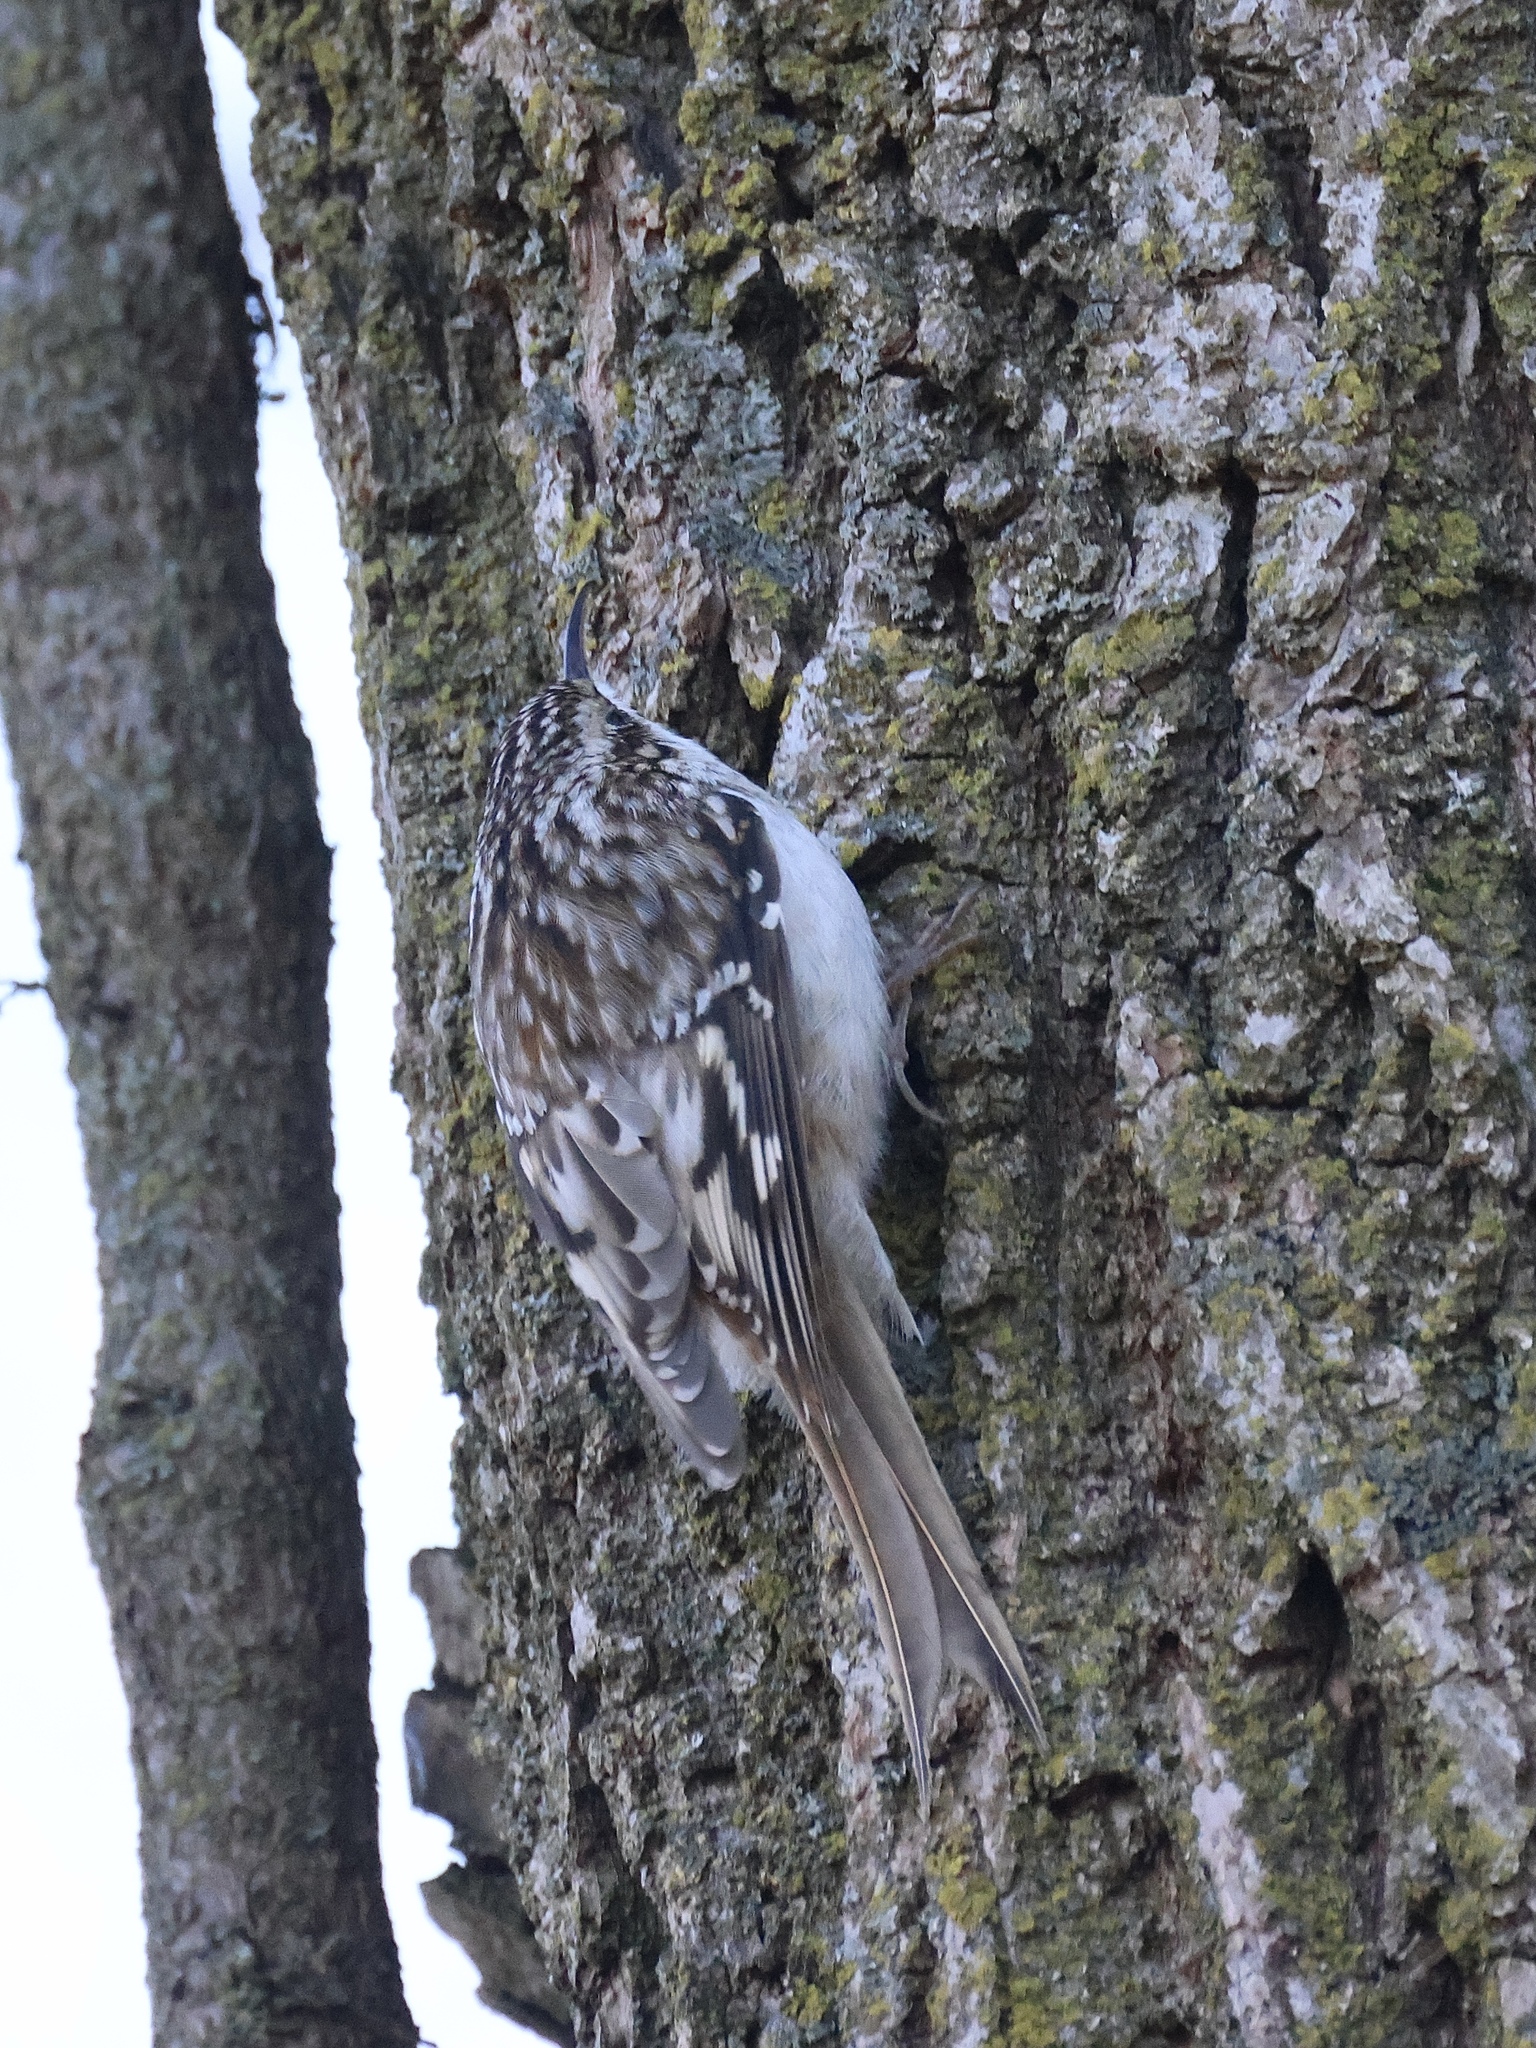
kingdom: Animalia
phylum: Chordata
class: Aves
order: Passeriformes
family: Certhiidae
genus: Certhia
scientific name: Certhia americana
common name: Brown creeper
